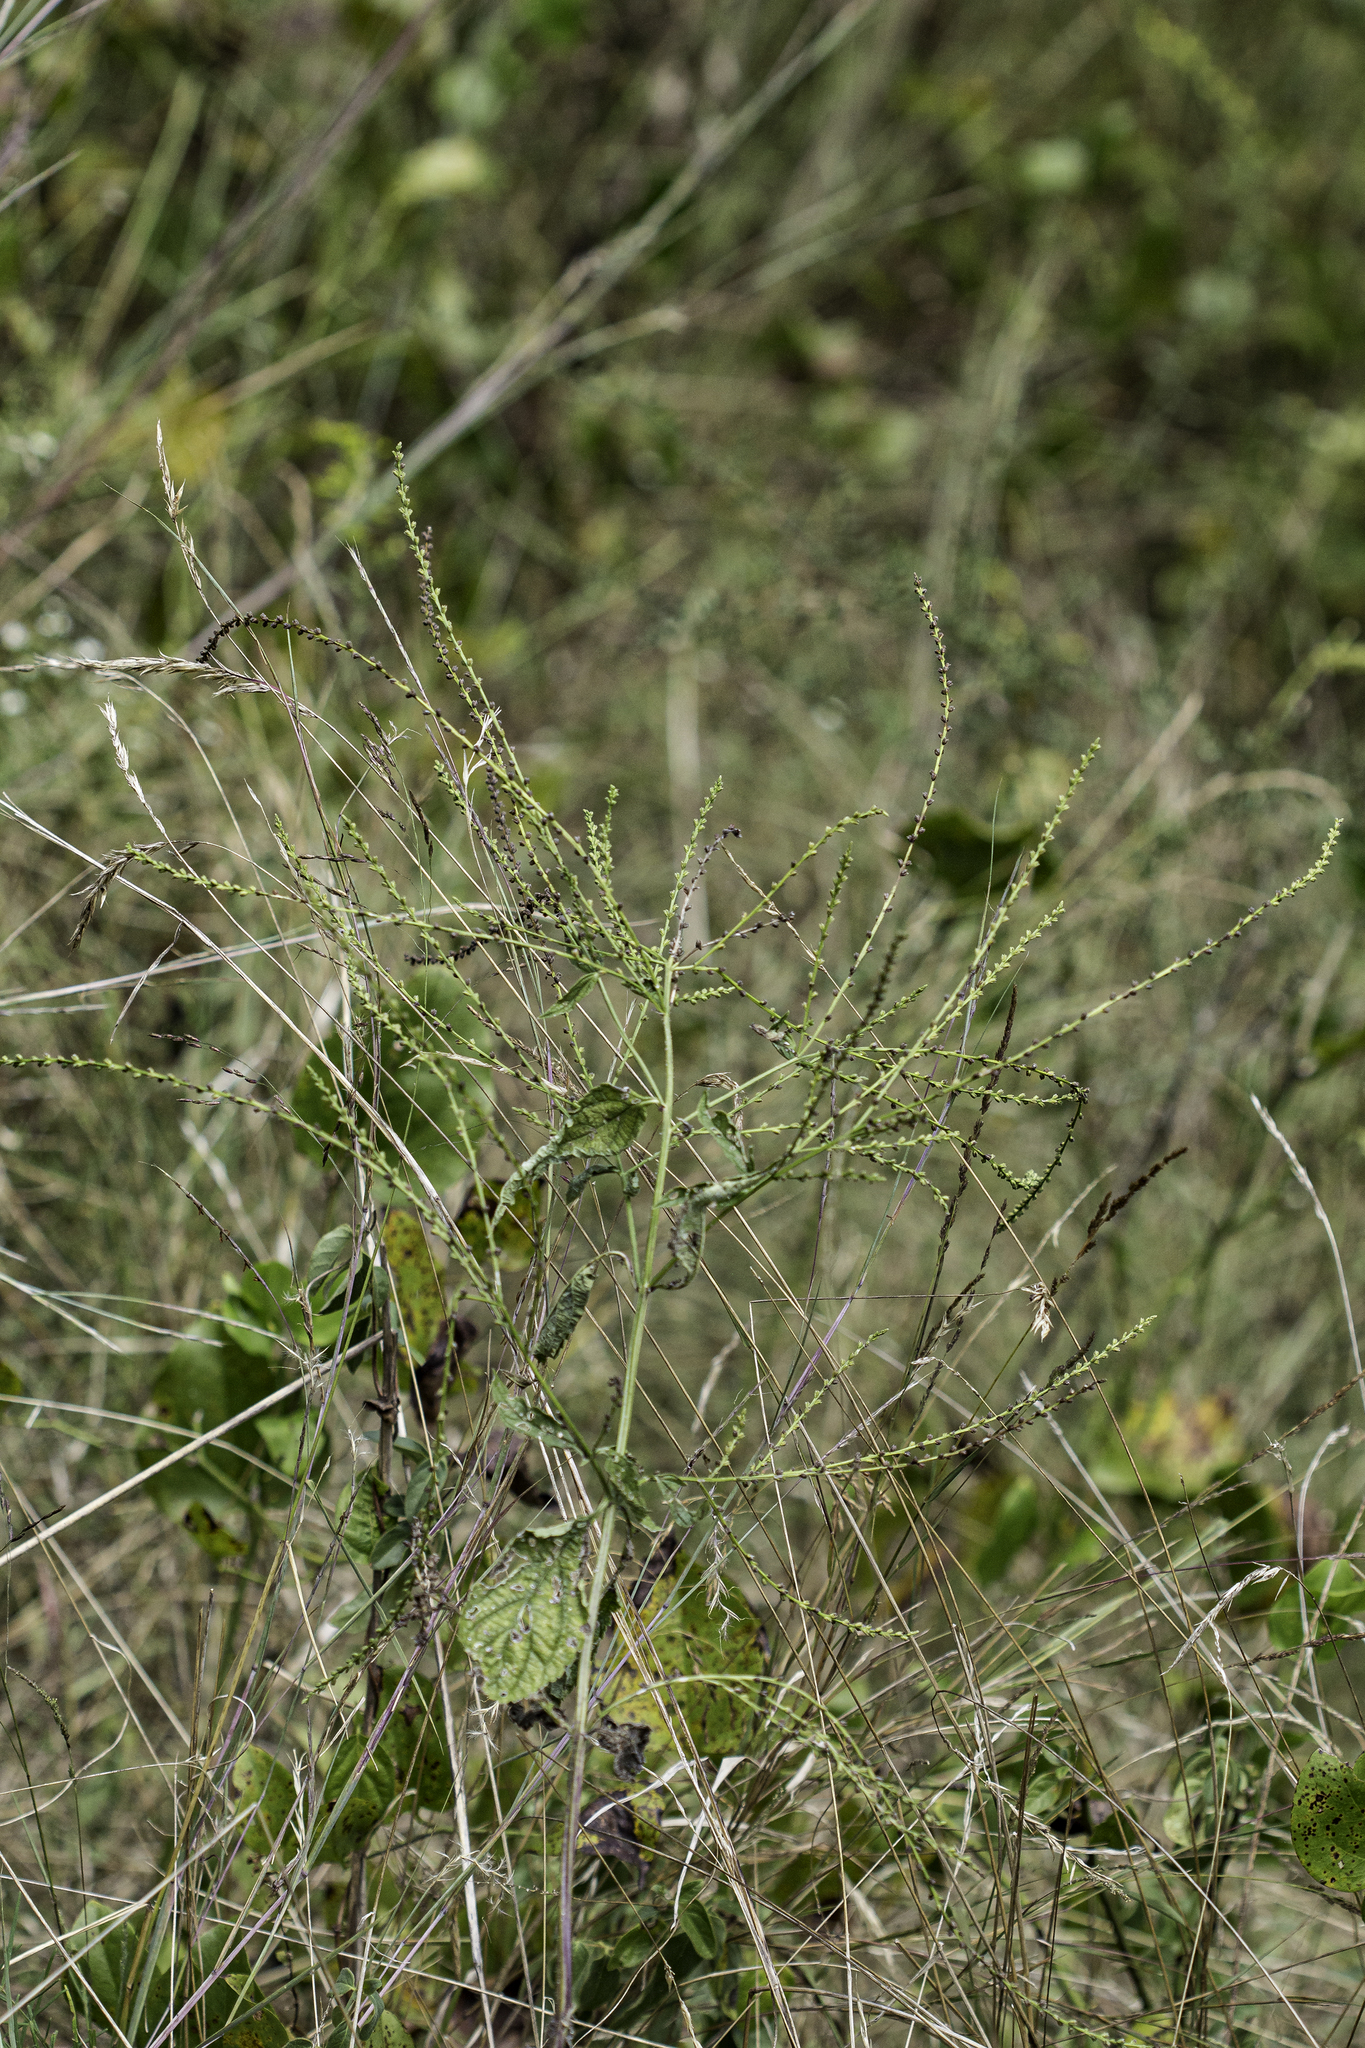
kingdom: Plantae
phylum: Tracheophyta
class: Magnoliopsida
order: Lamiales
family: Verbenaceae
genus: Verbena
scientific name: Verbena urticifolia
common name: Nettle-leaved vervain
